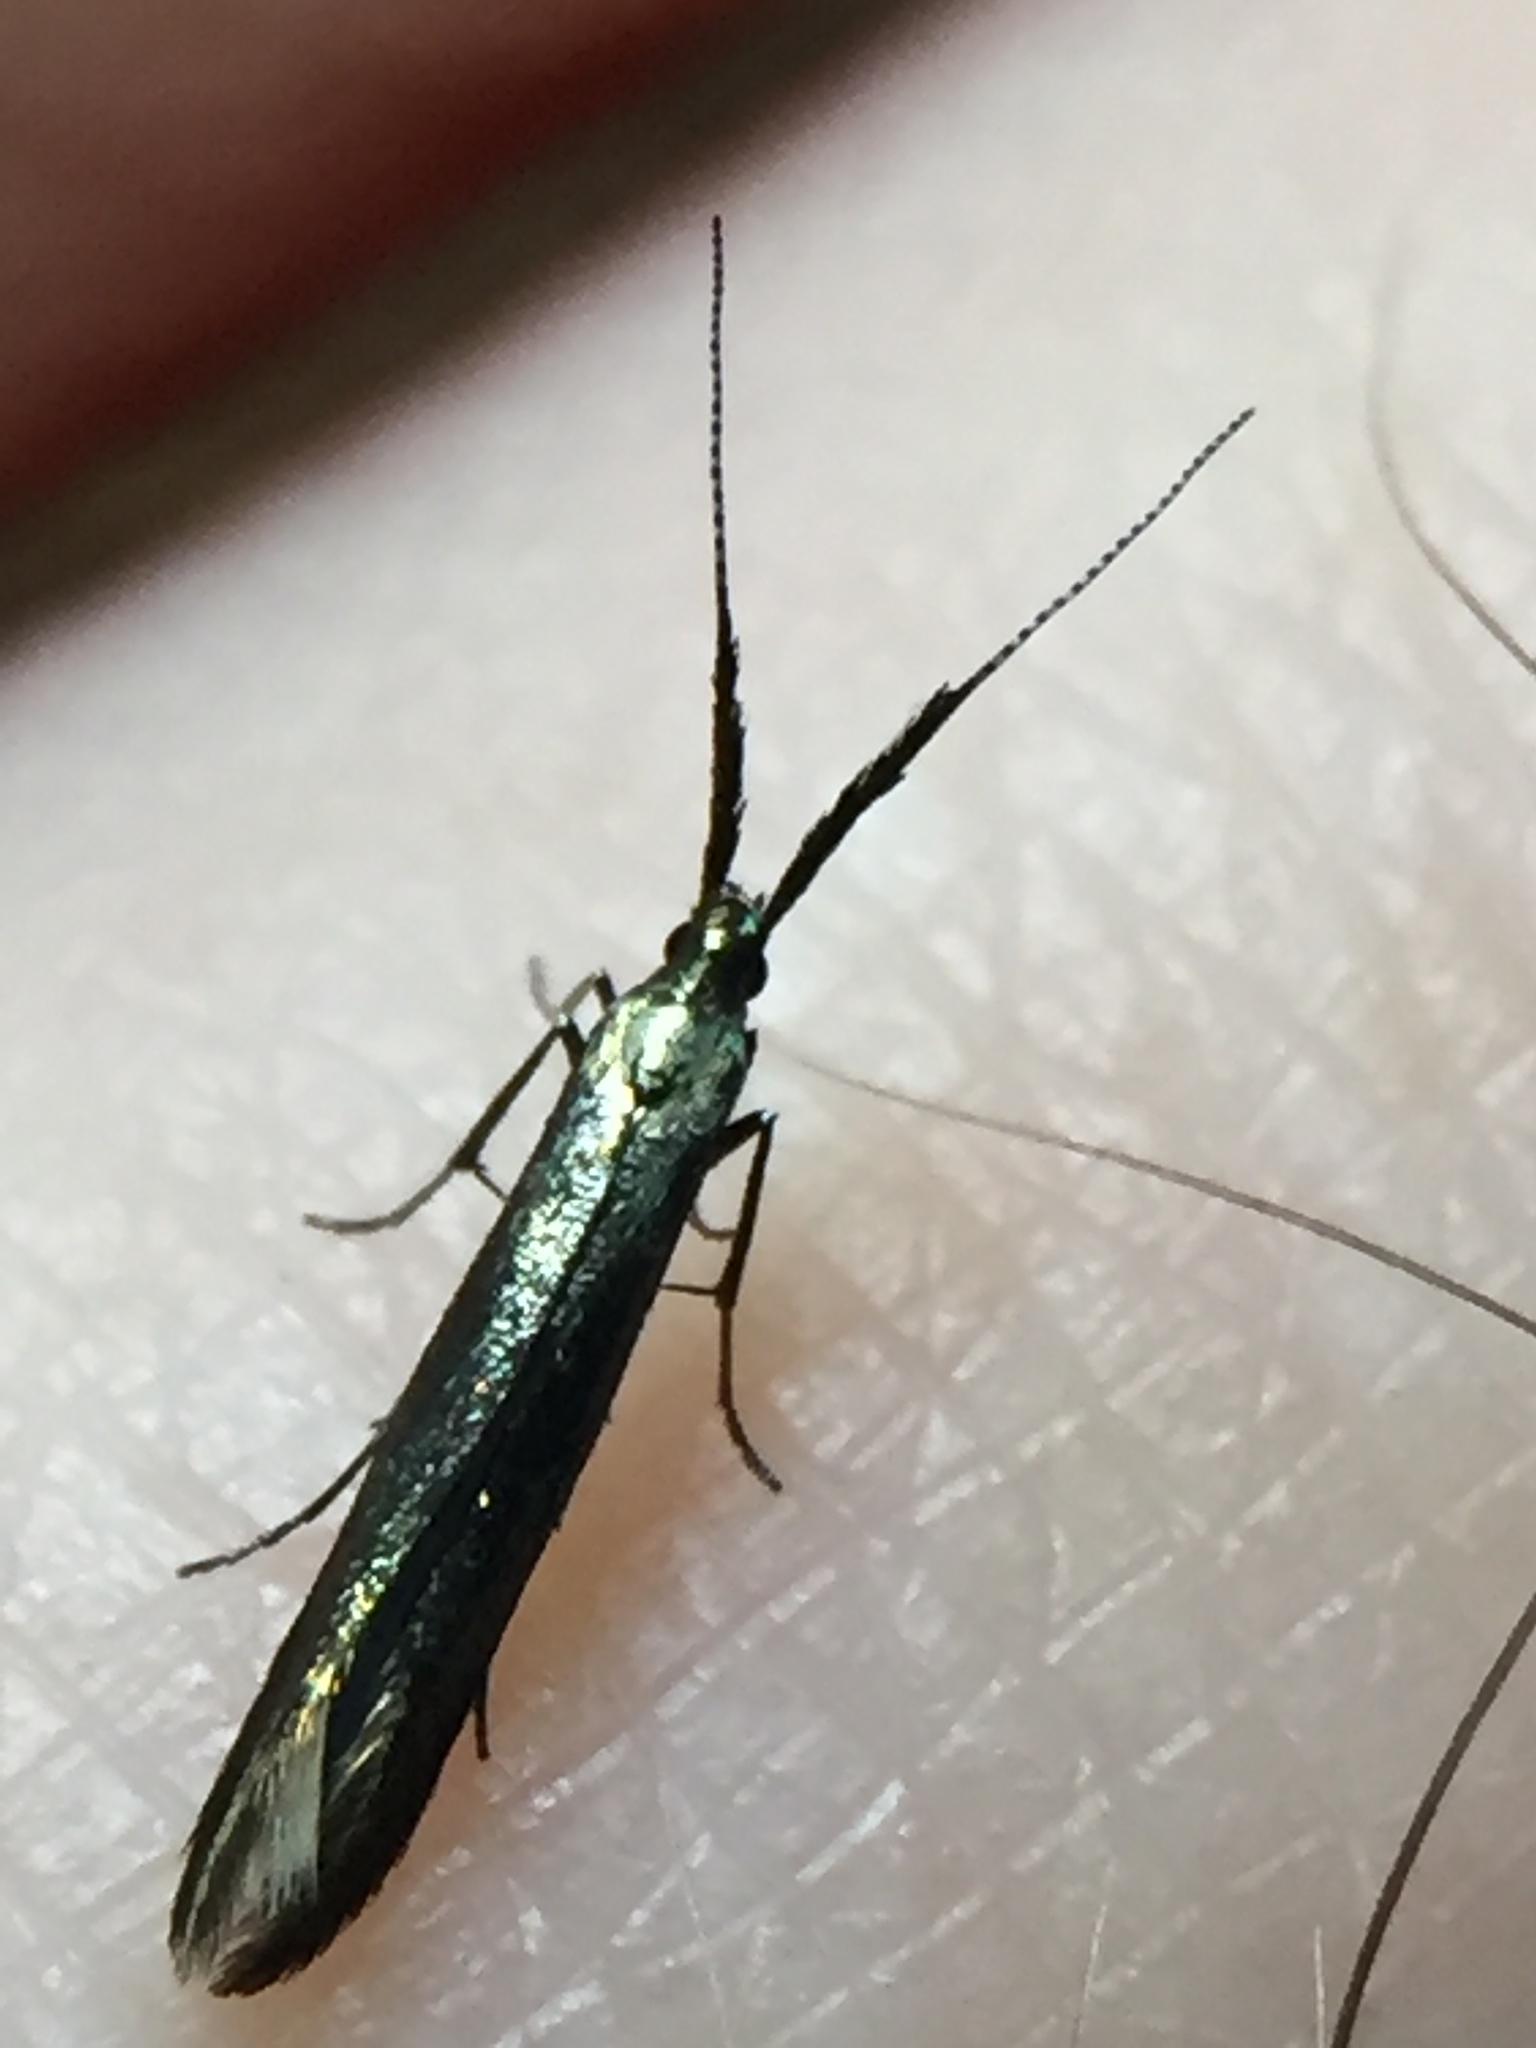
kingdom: Animalia
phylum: Arthropoda
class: Insecta
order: Lepidoptera
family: Coleophoridae
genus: Coleophora
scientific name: Coleophora mayrella
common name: Meadow case-bearer
